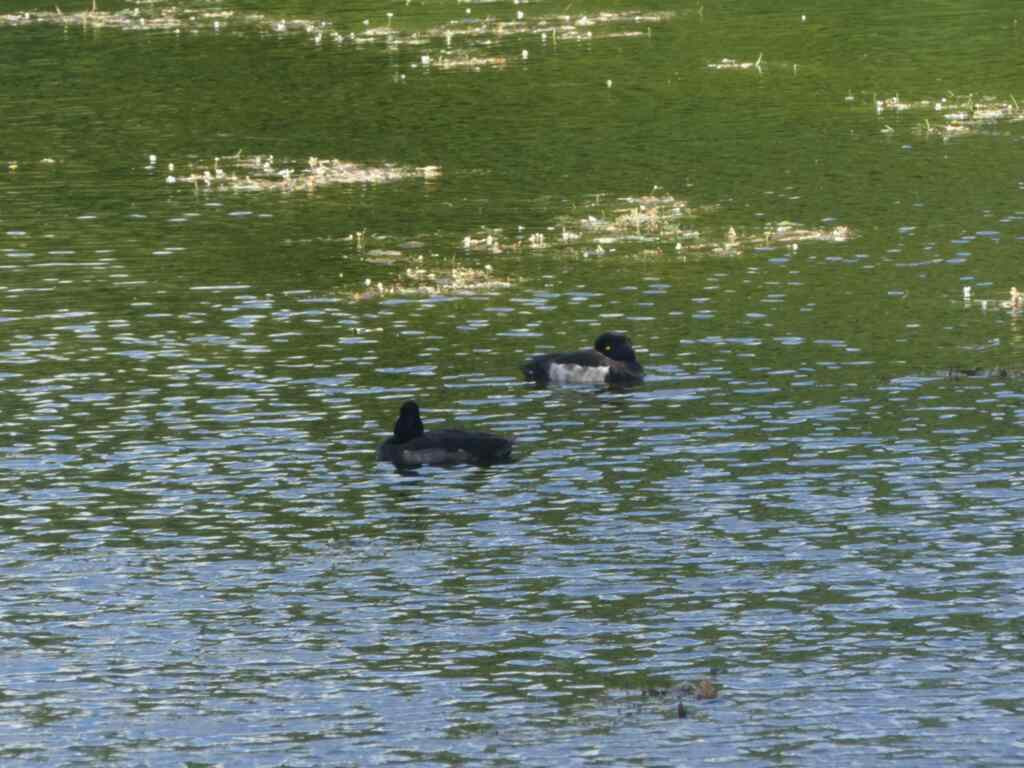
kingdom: Animalia
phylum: Chordata
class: Aves
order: Anseriformes
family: Anatidae
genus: Aythya
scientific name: Aythya fuligula
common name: Tufted duck
